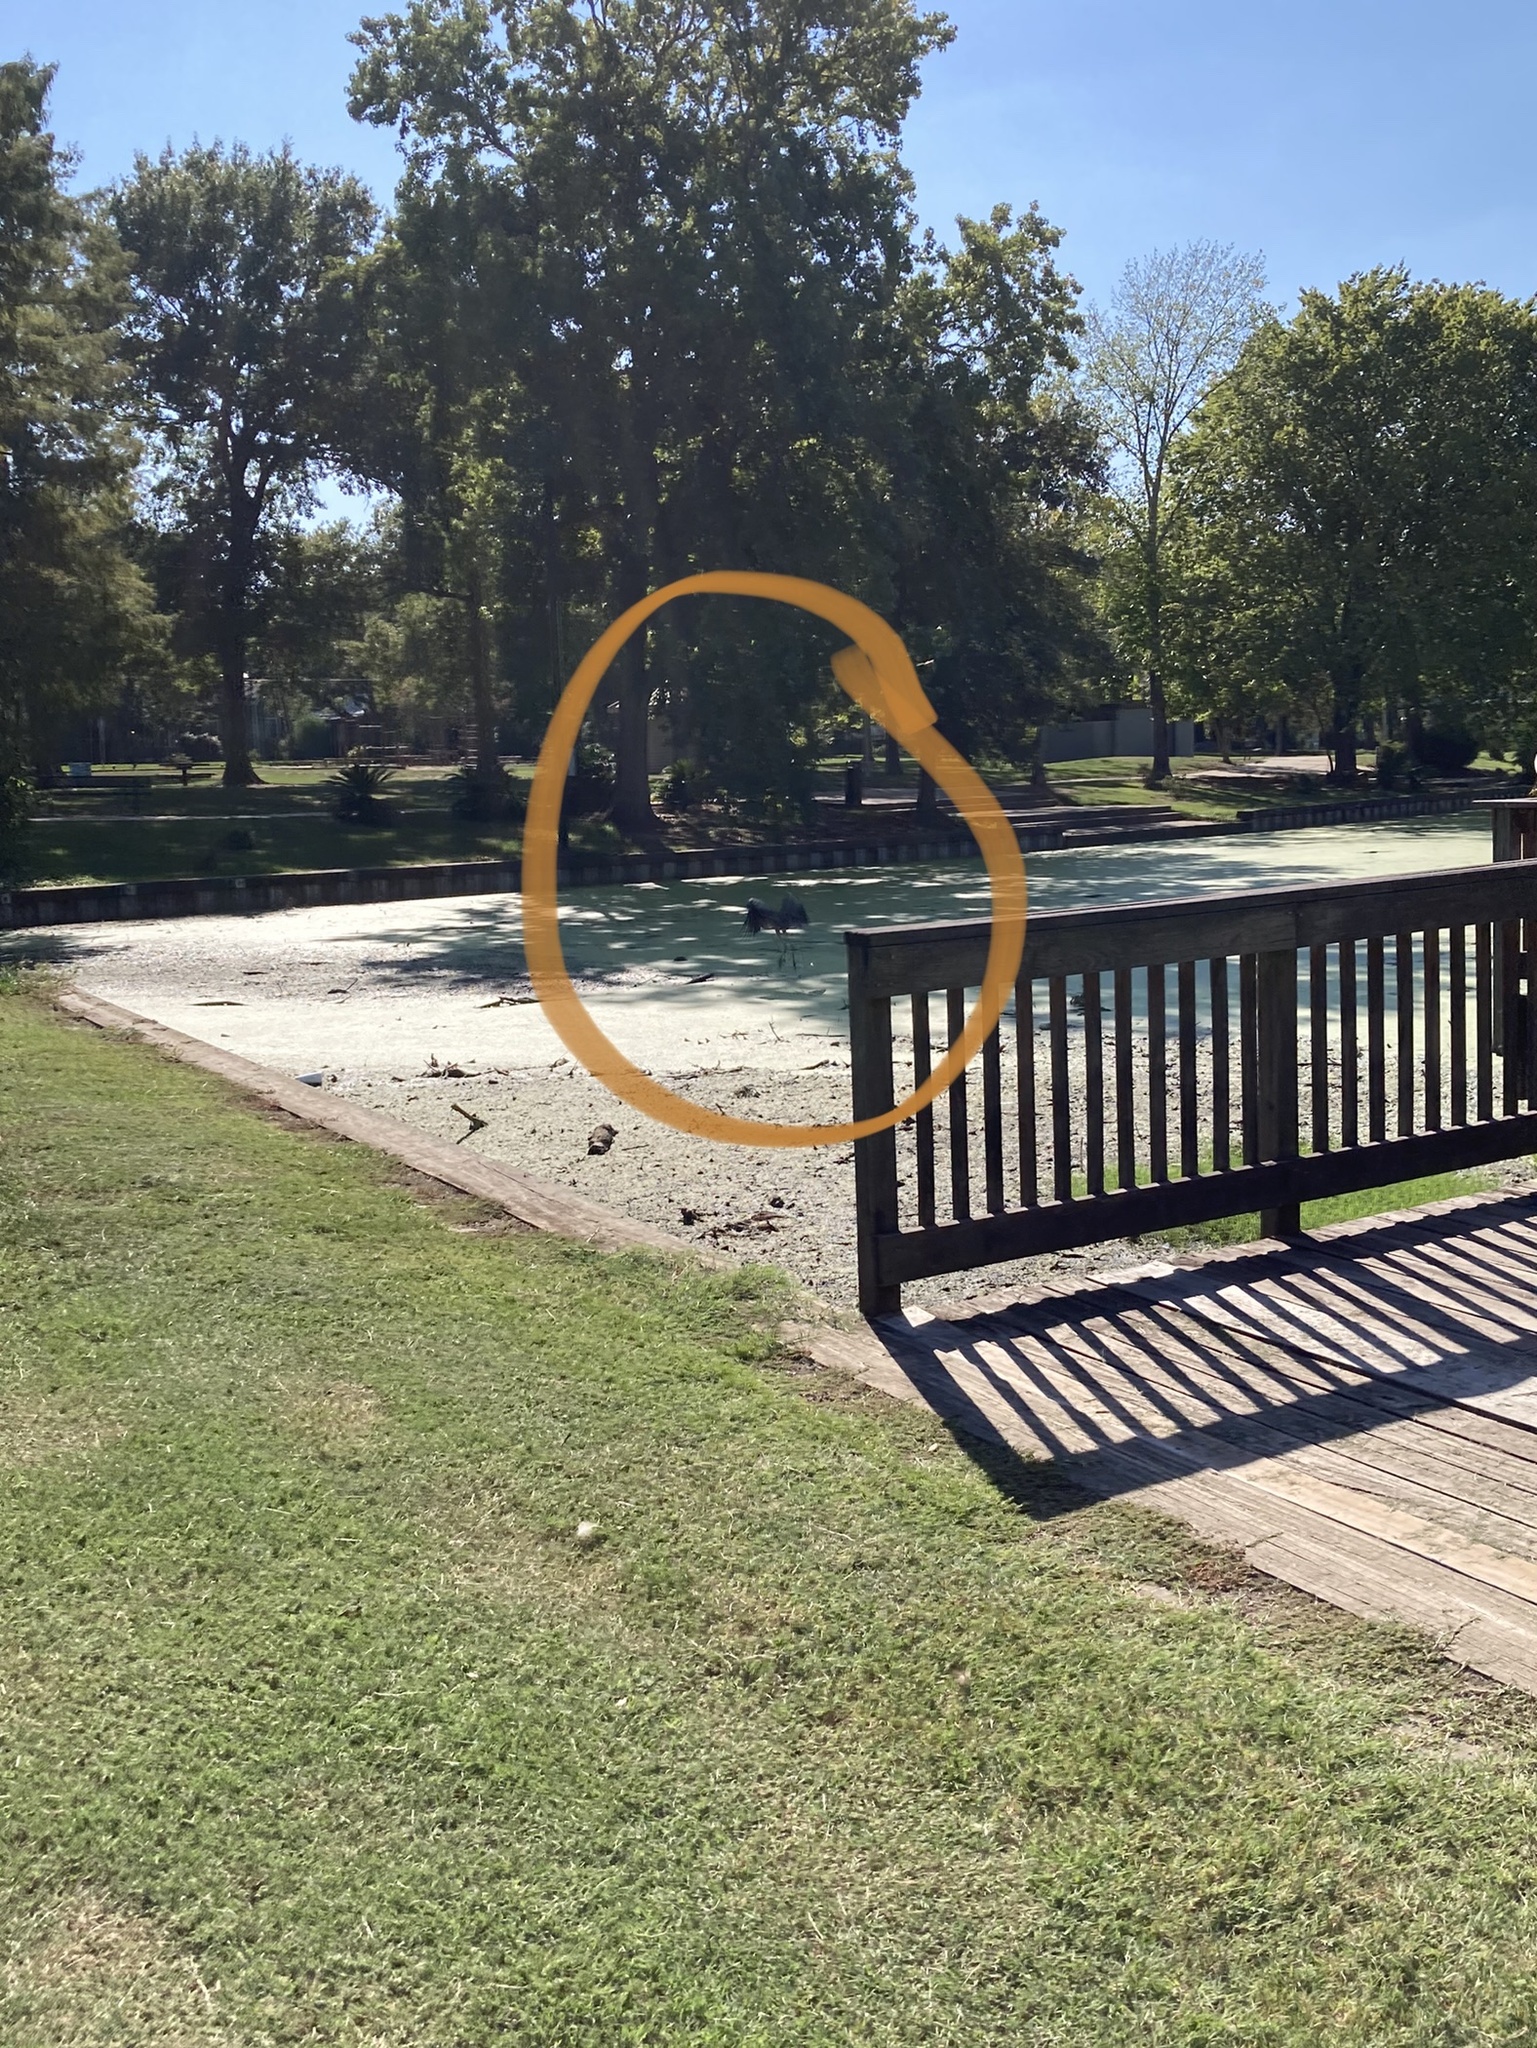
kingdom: Animalia
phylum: Chordata
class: Aves
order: Pelecaniformes
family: Ardeidae
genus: Ardea
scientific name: Ardea herodias
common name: Great blue heron
